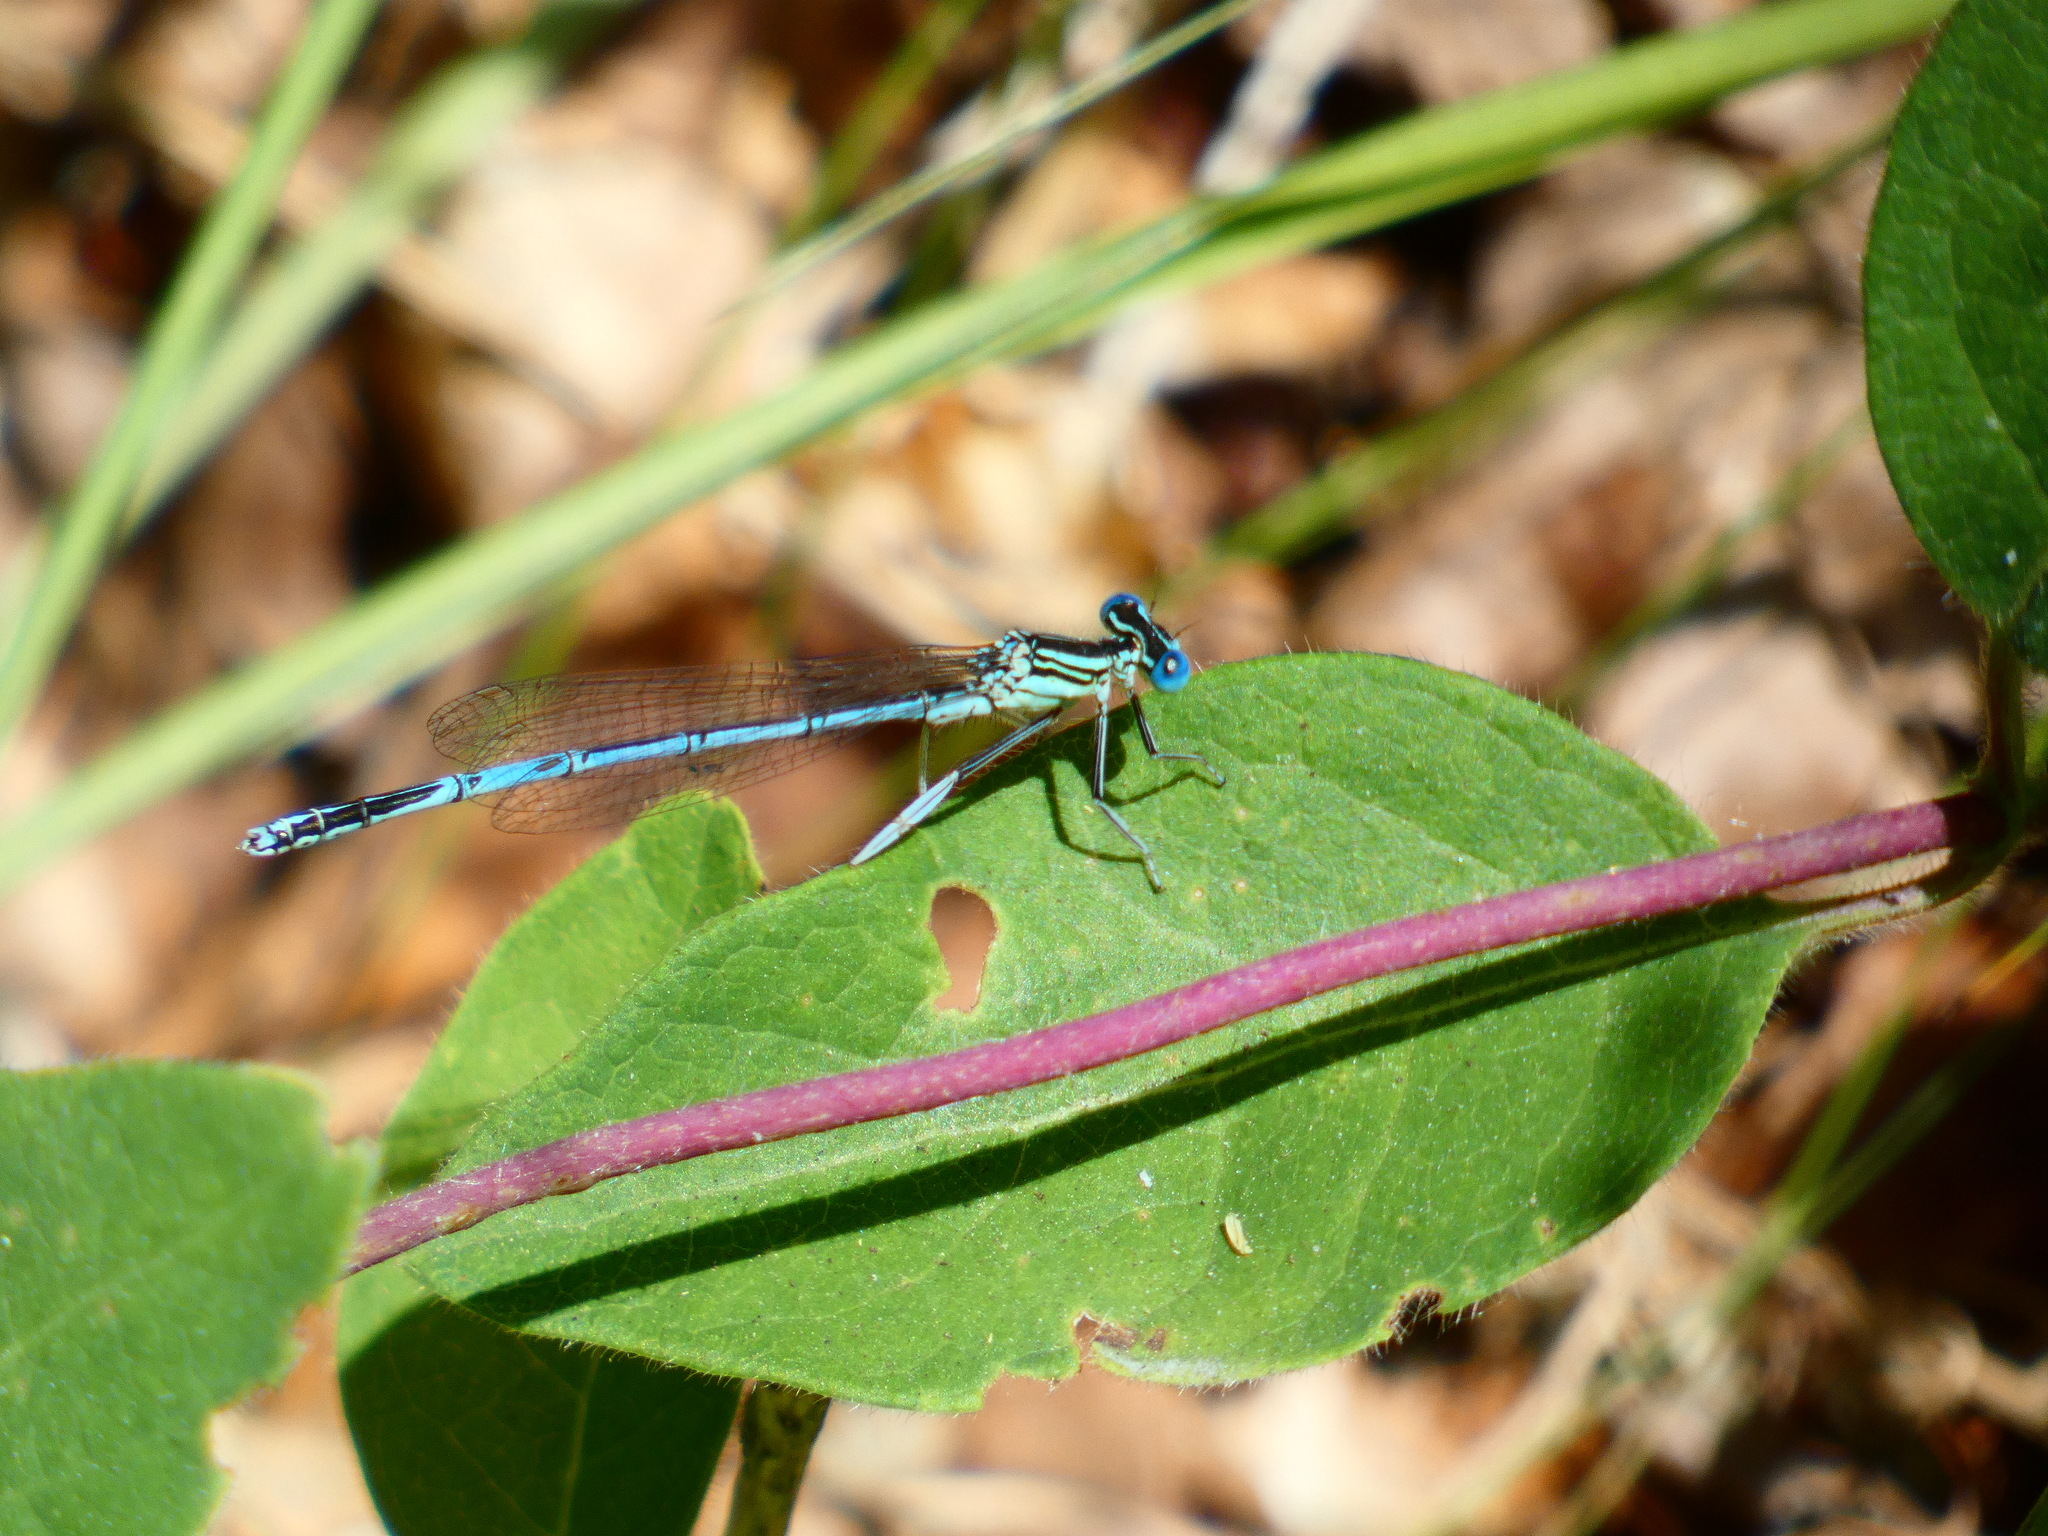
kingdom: Animalia
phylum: Arthropoda
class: Insecta
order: Odonata
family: Platycnemididae
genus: Platycnemis
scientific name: Platycnemis pennipes
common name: White-legged damselfly
